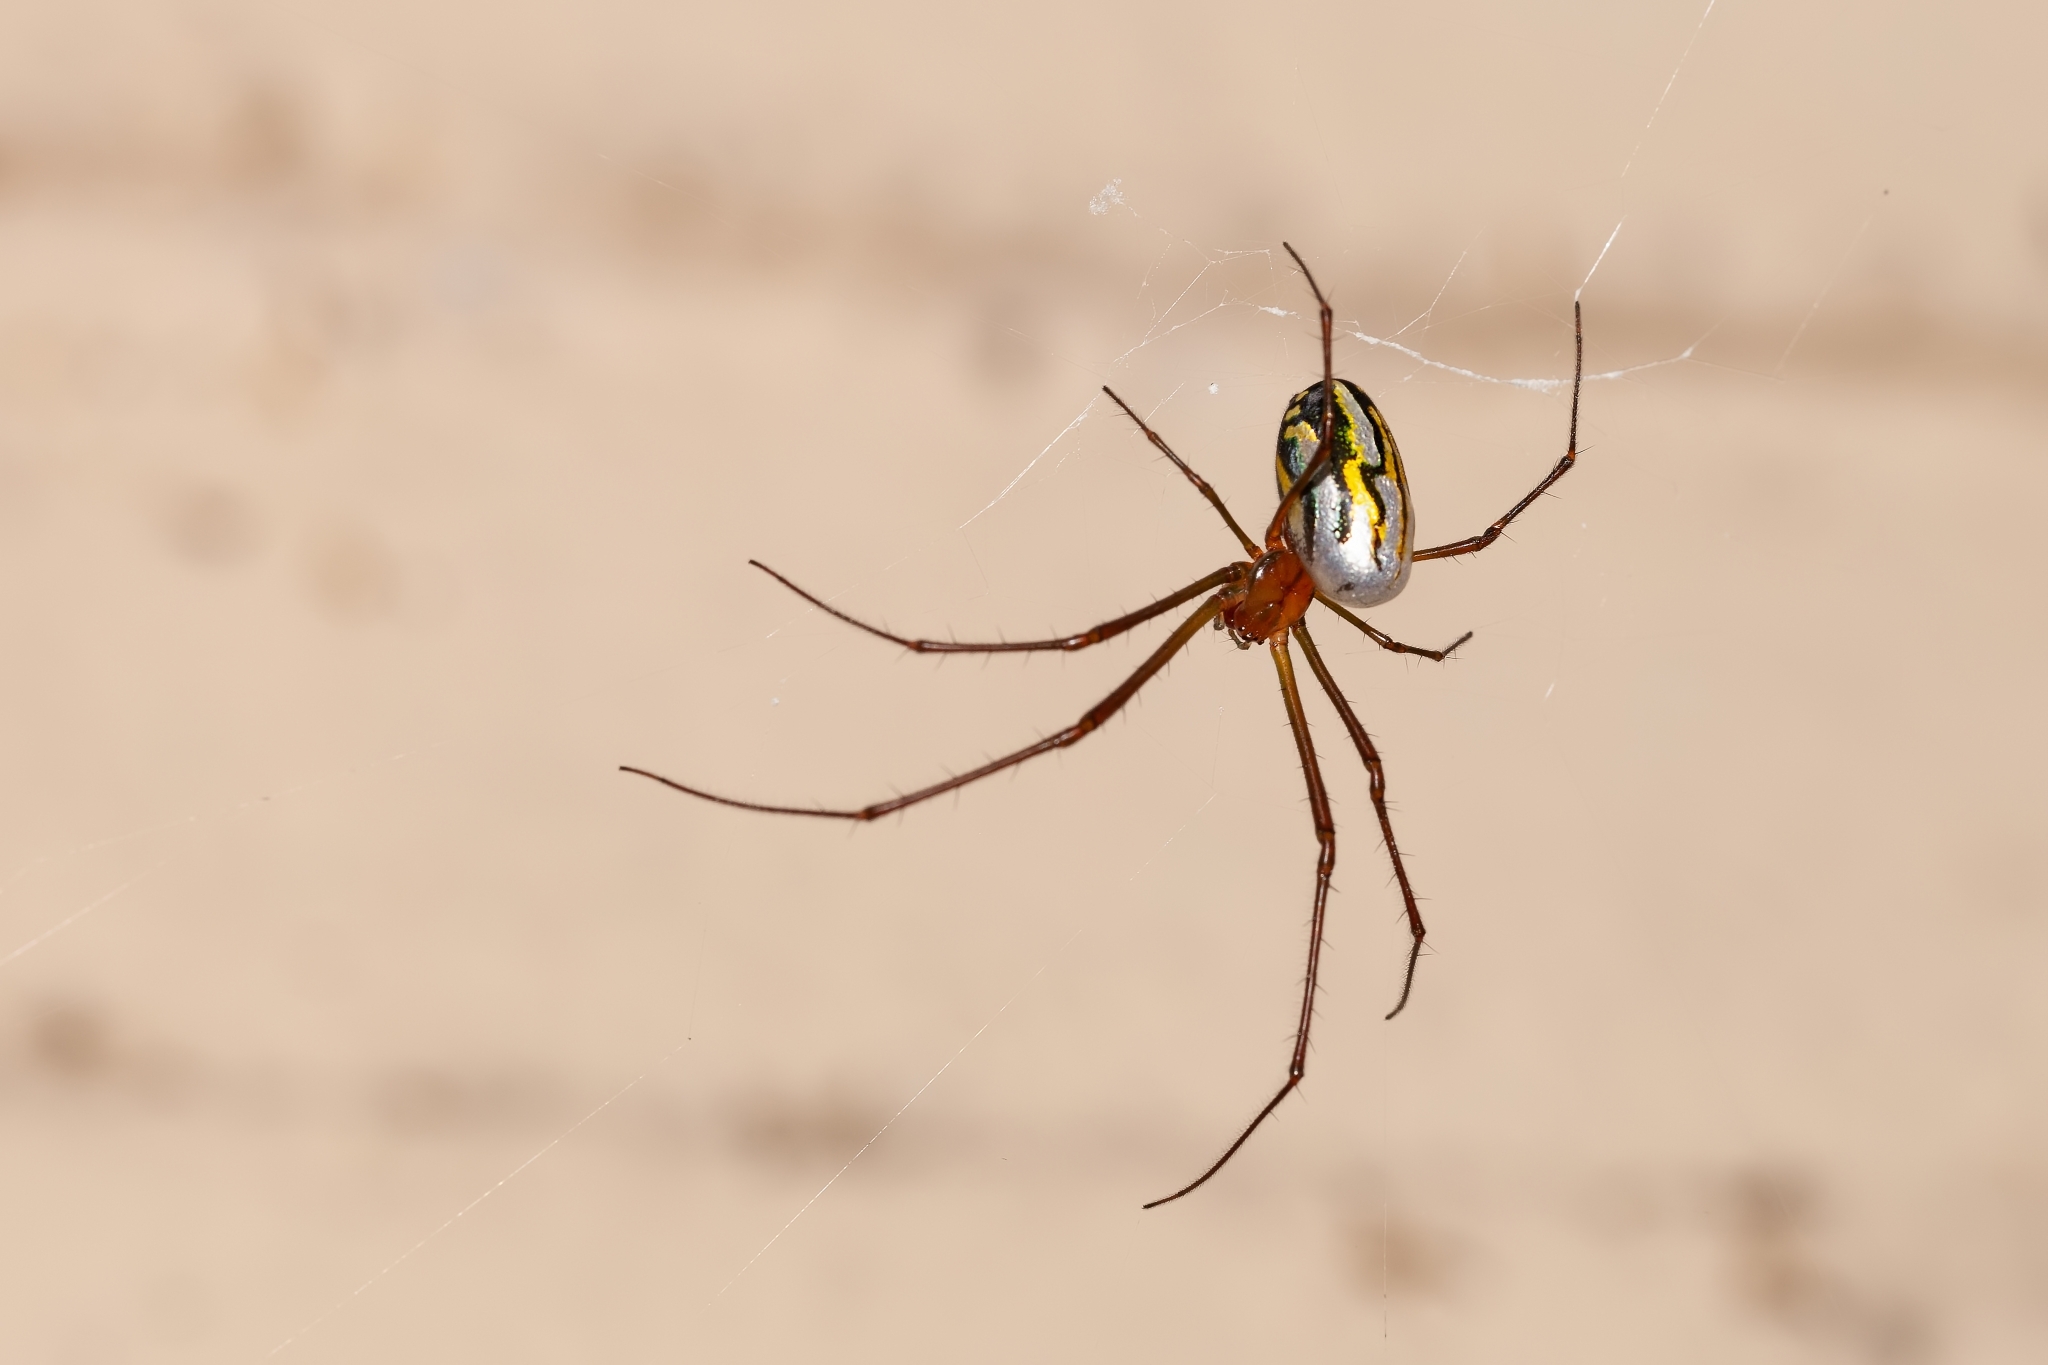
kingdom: Animalia
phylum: Arthropoda
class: Arachnida
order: Araneae
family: Tetragnathidae
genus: Leucauge
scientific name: Leucauge argyra
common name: Longjawed orb weavers
